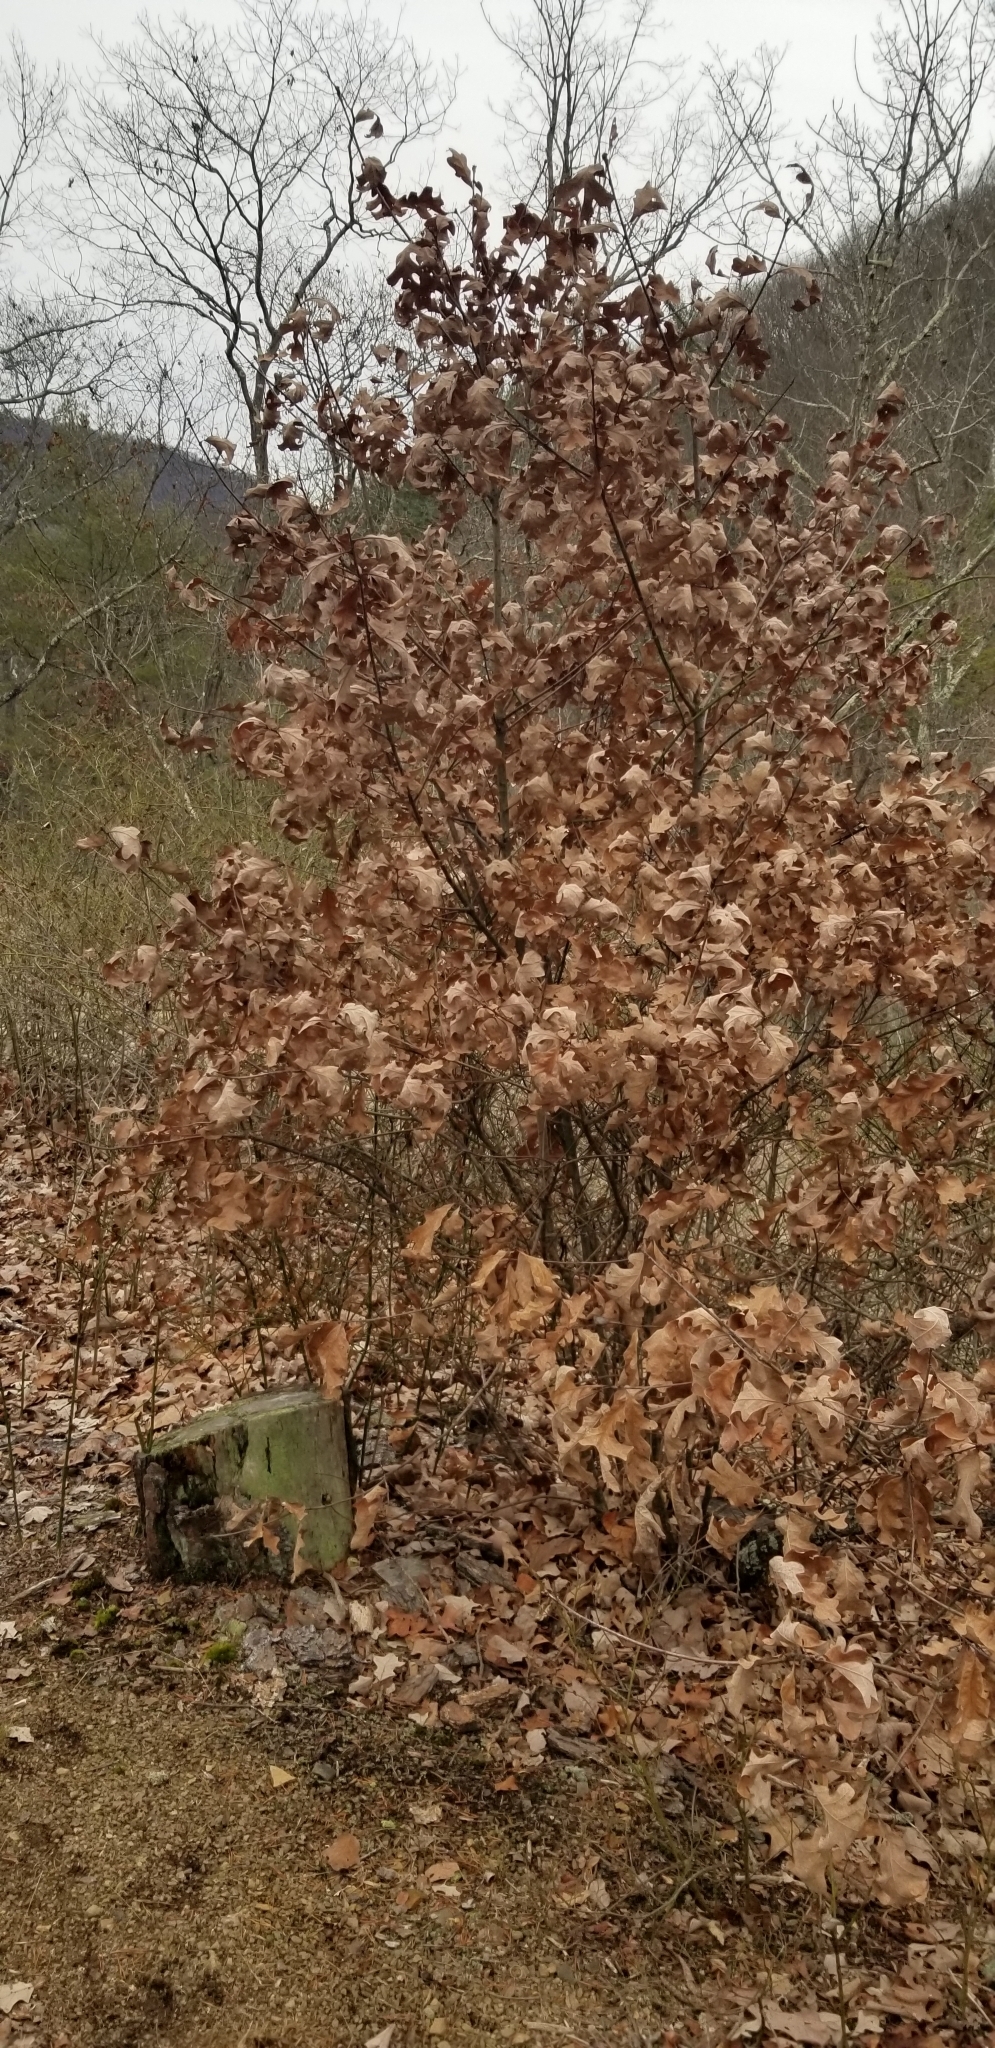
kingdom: Plantae
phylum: Tracheophyta
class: Magnoliopsida
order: Fagales
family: Fagaceae
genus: Quercus
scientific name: Quercus ilicifolia
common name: Bear oak
